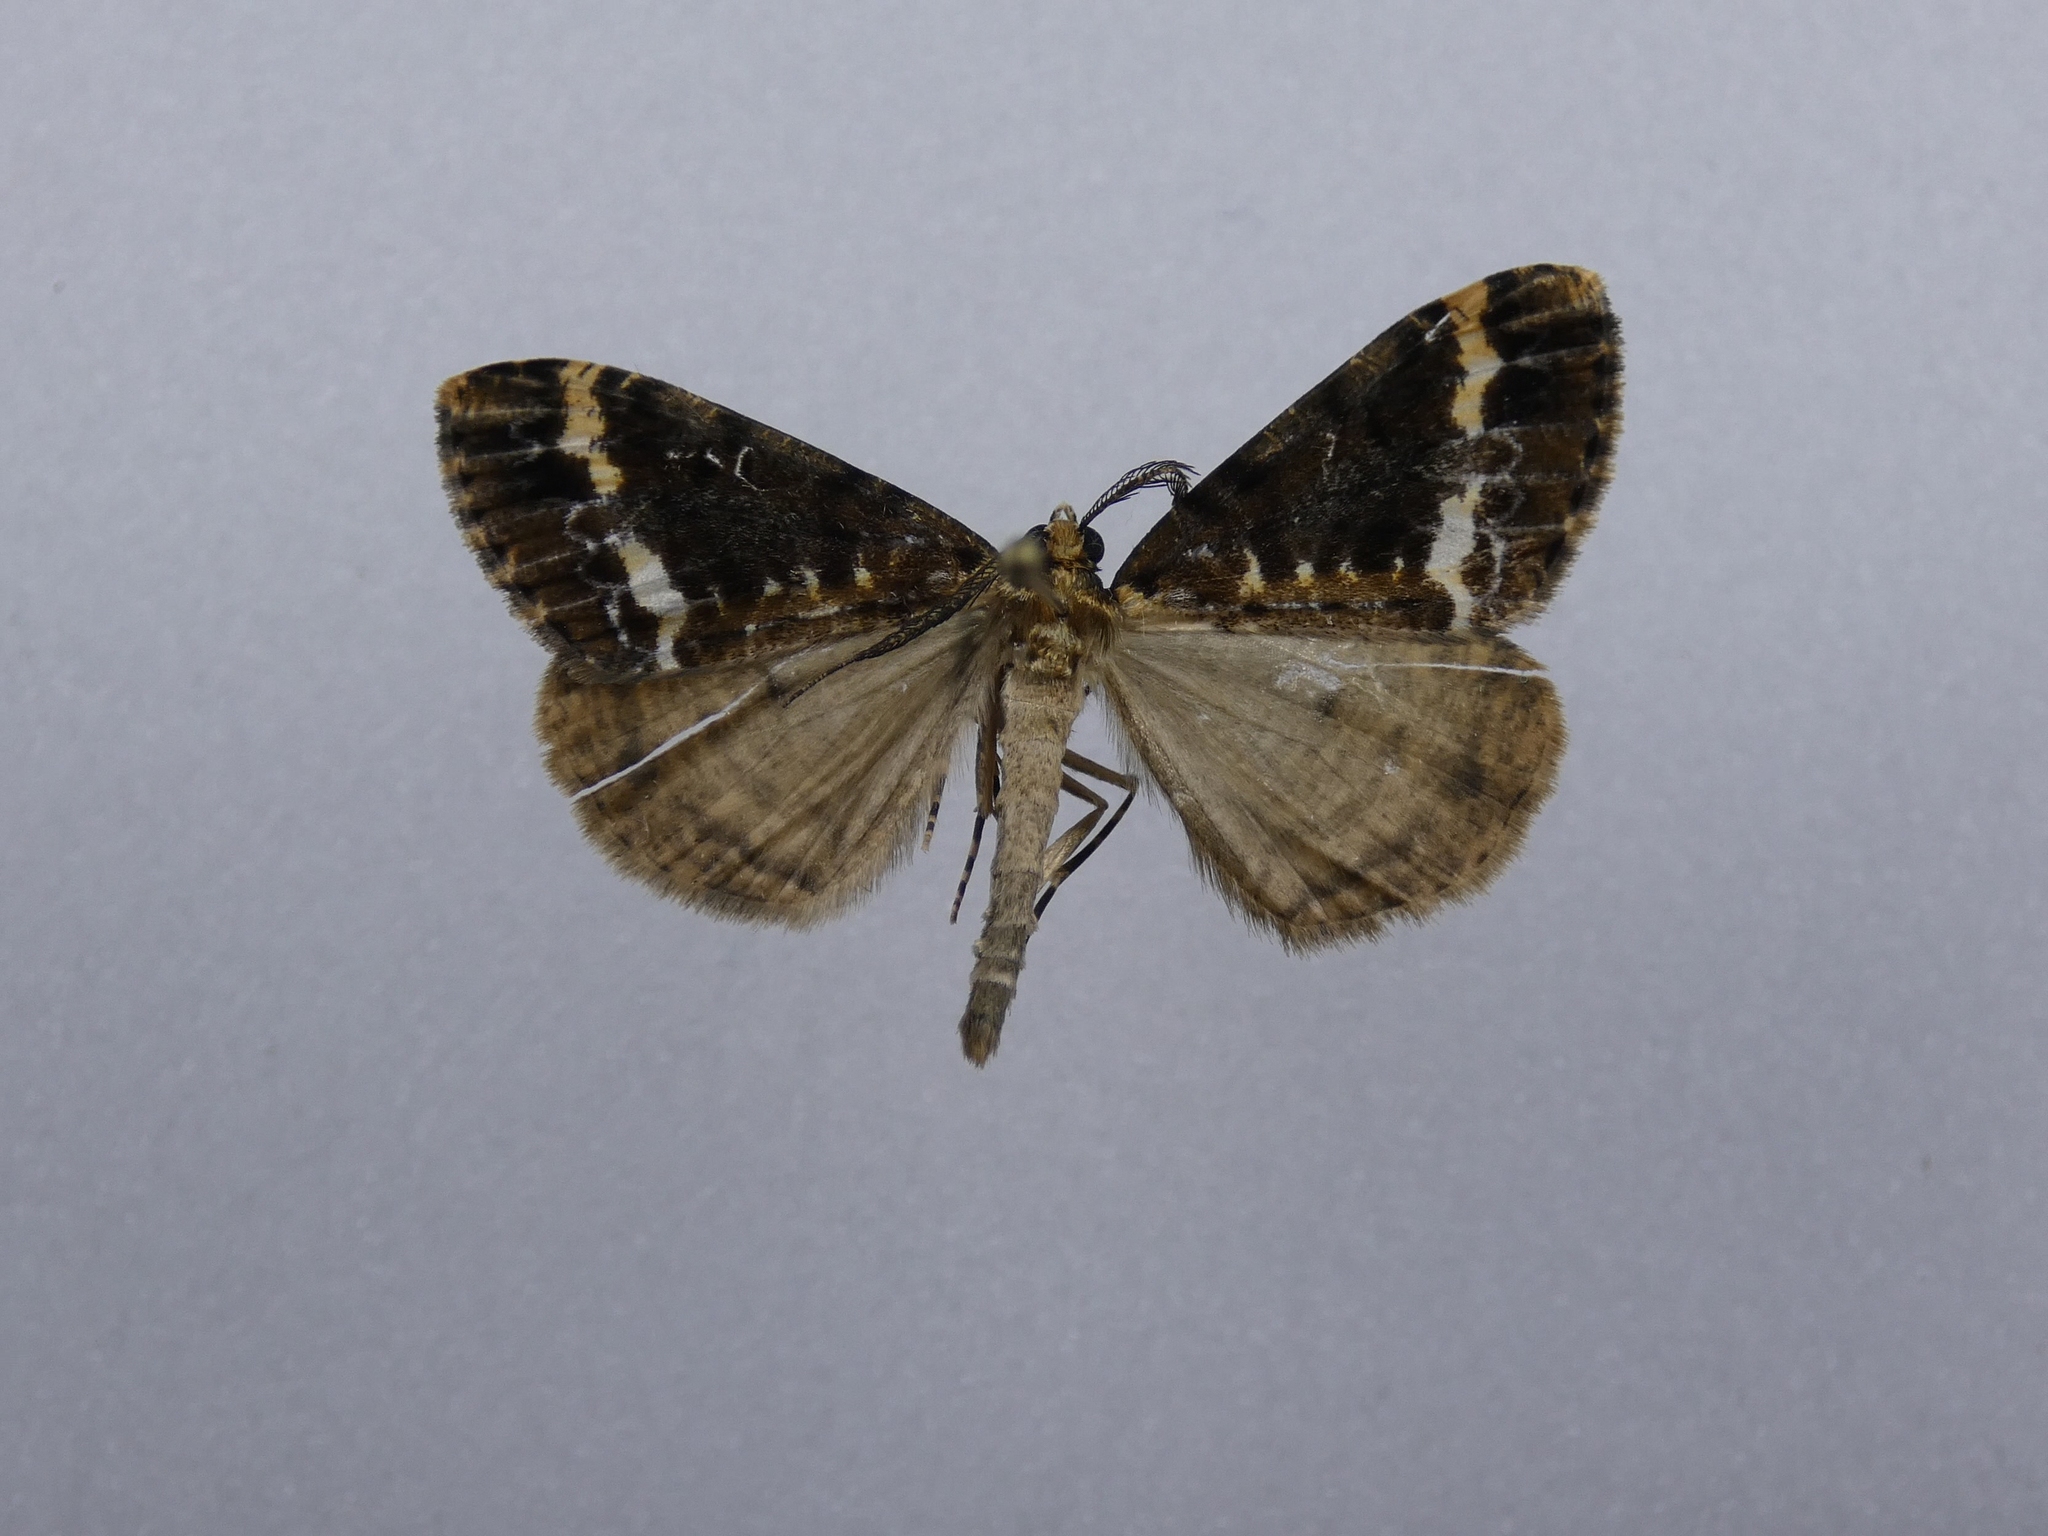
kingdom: Animalia
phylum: Arthropoda
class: Insecta
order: Lepidoptera
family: Geometridae
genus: Pseudocoremia
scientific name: Pseudocoremia leucelaea
